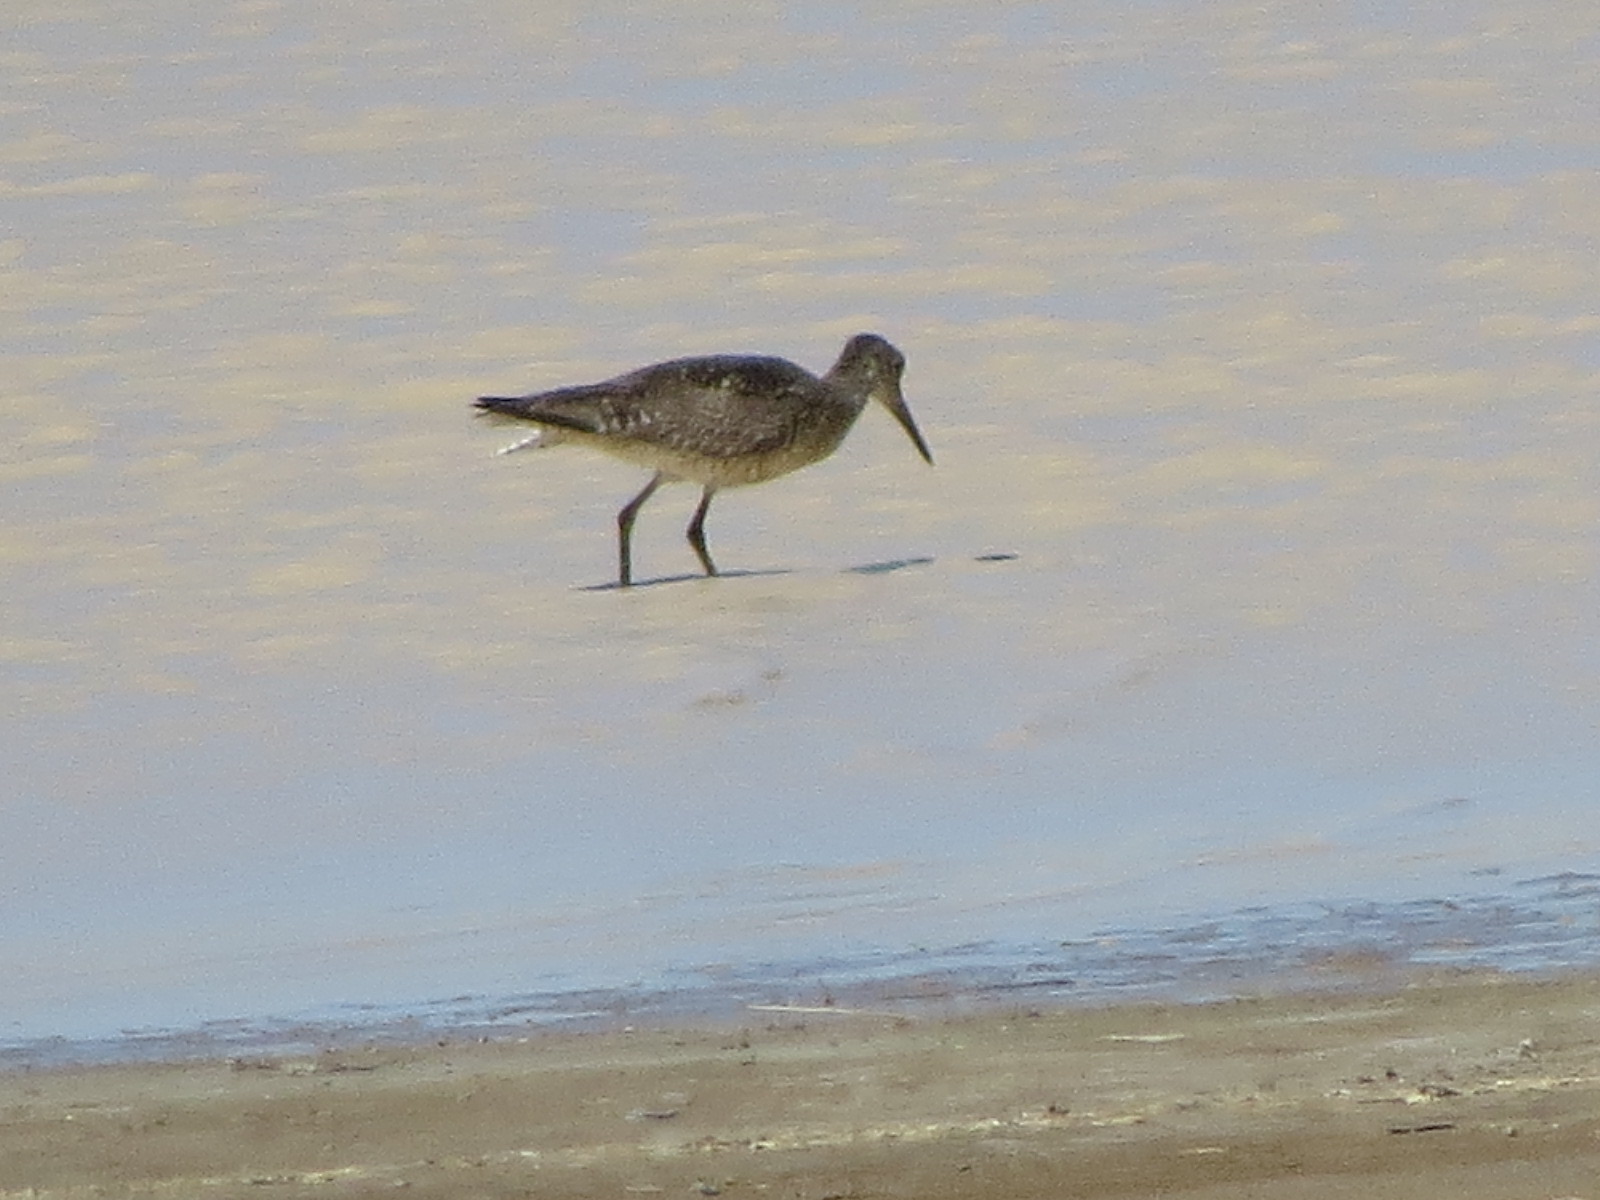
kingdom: Animalia
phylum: Chordata
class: Aves
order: Charadriiformes
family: Scolopacidae
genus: Tringa
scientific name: Tringa semipalmata
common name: Willet
